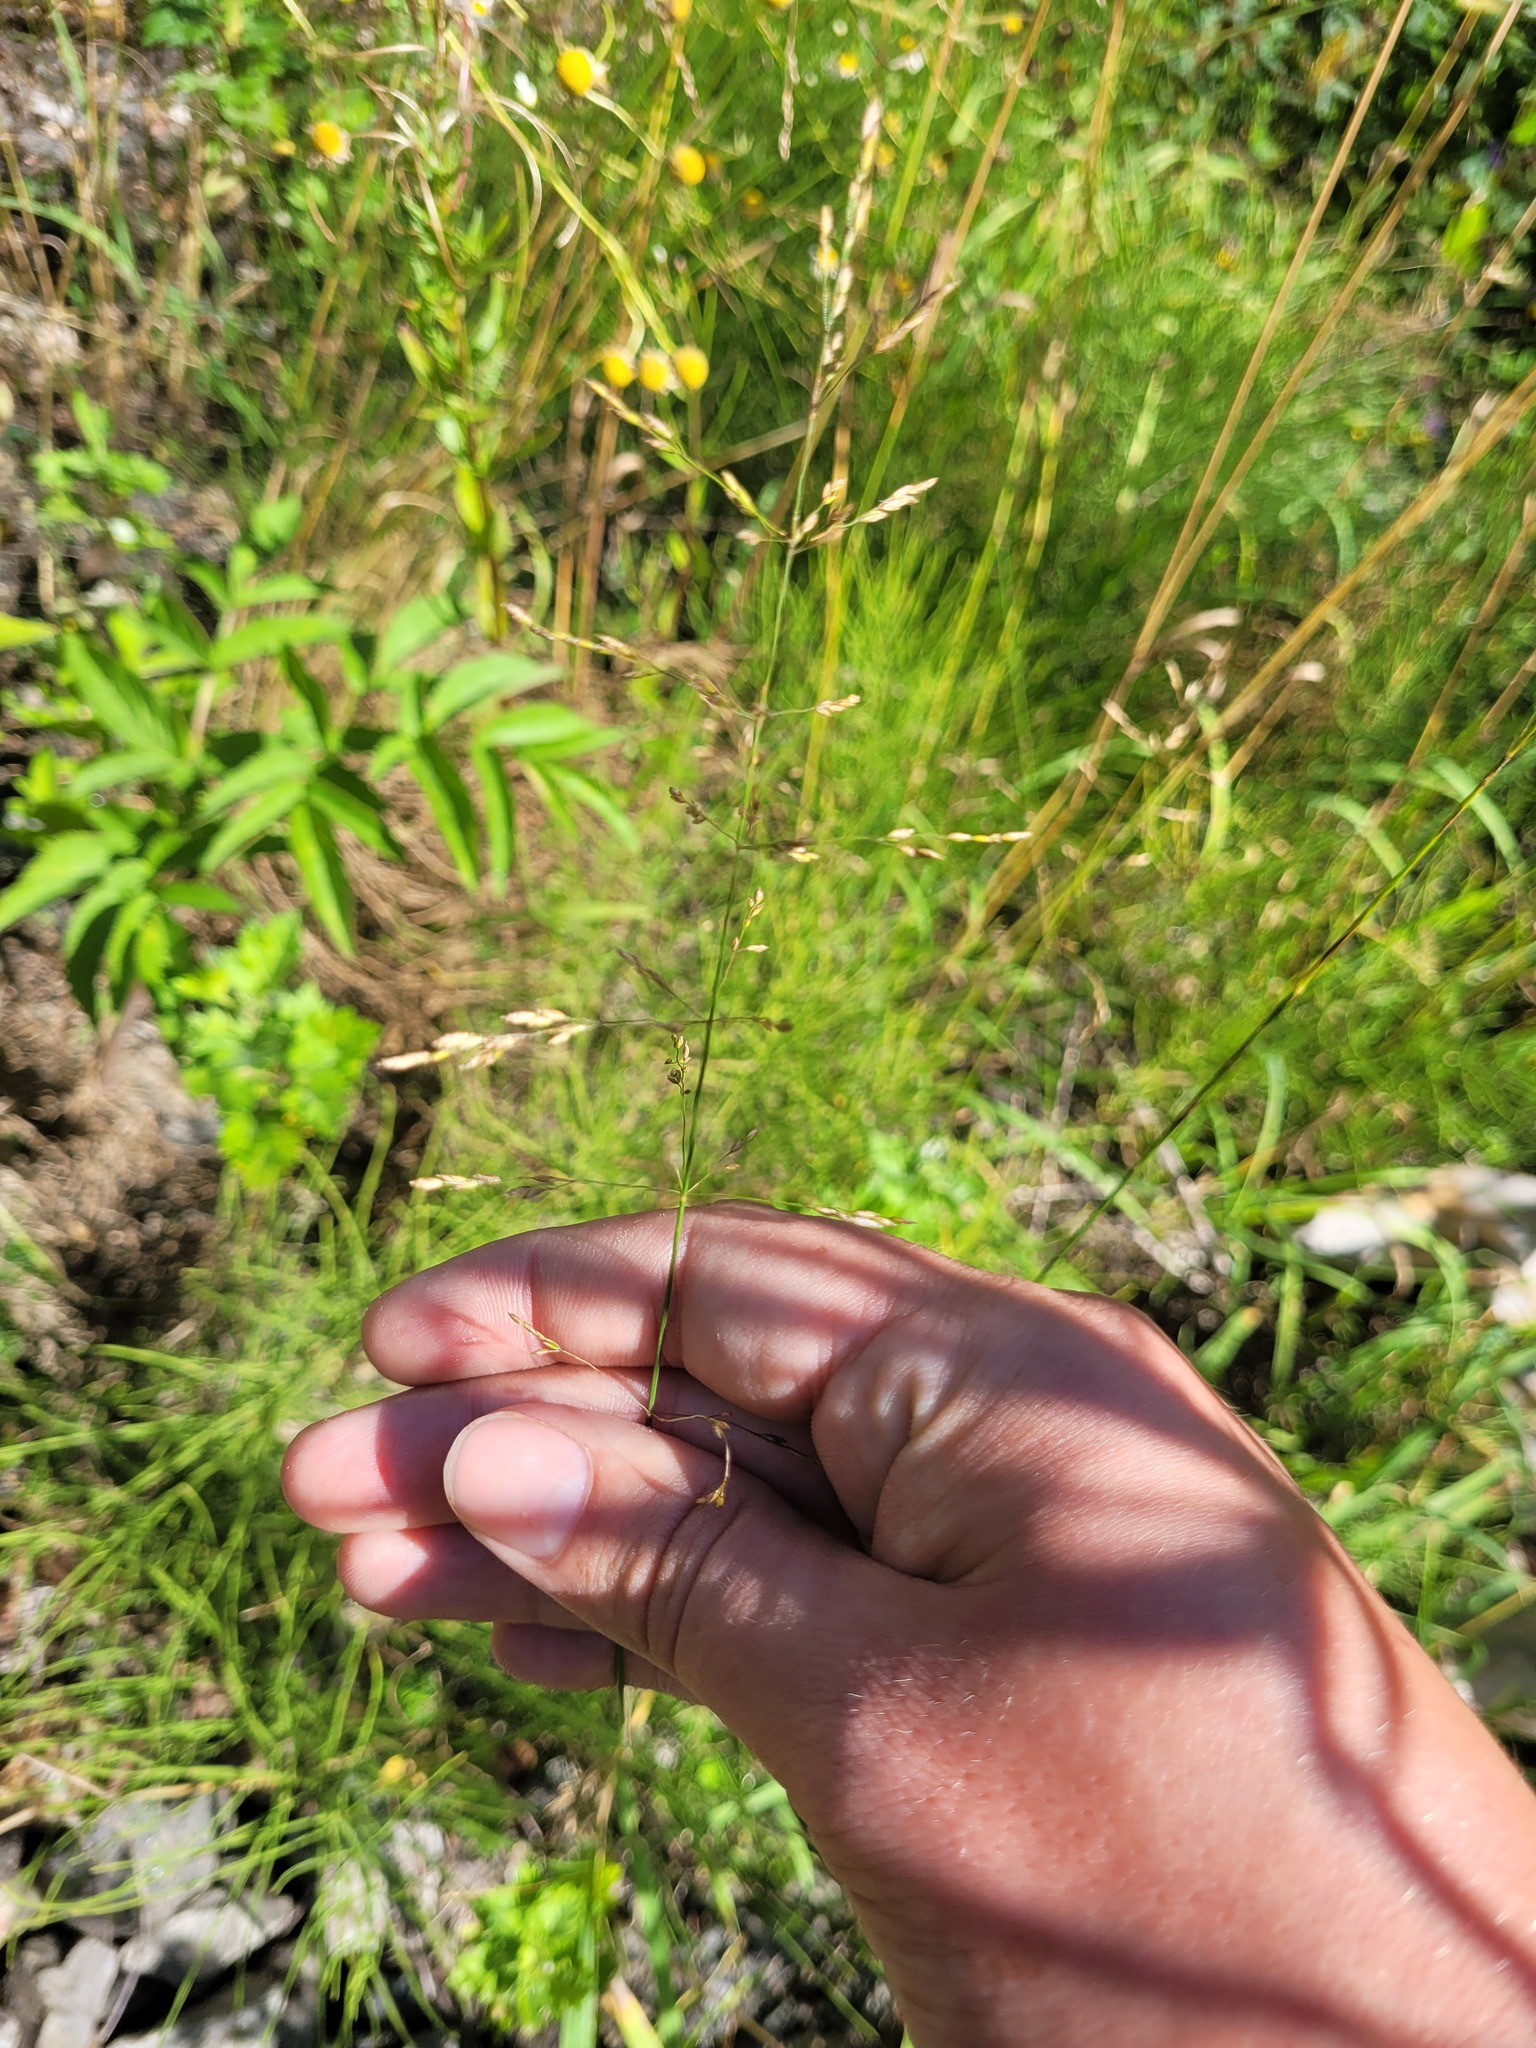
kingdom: Plantae
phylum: Tracheophyta
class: Liliopsida
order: Poales
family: Poaceae
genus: Poa
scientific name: Poa palustris
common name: Swamp meadow-grass
